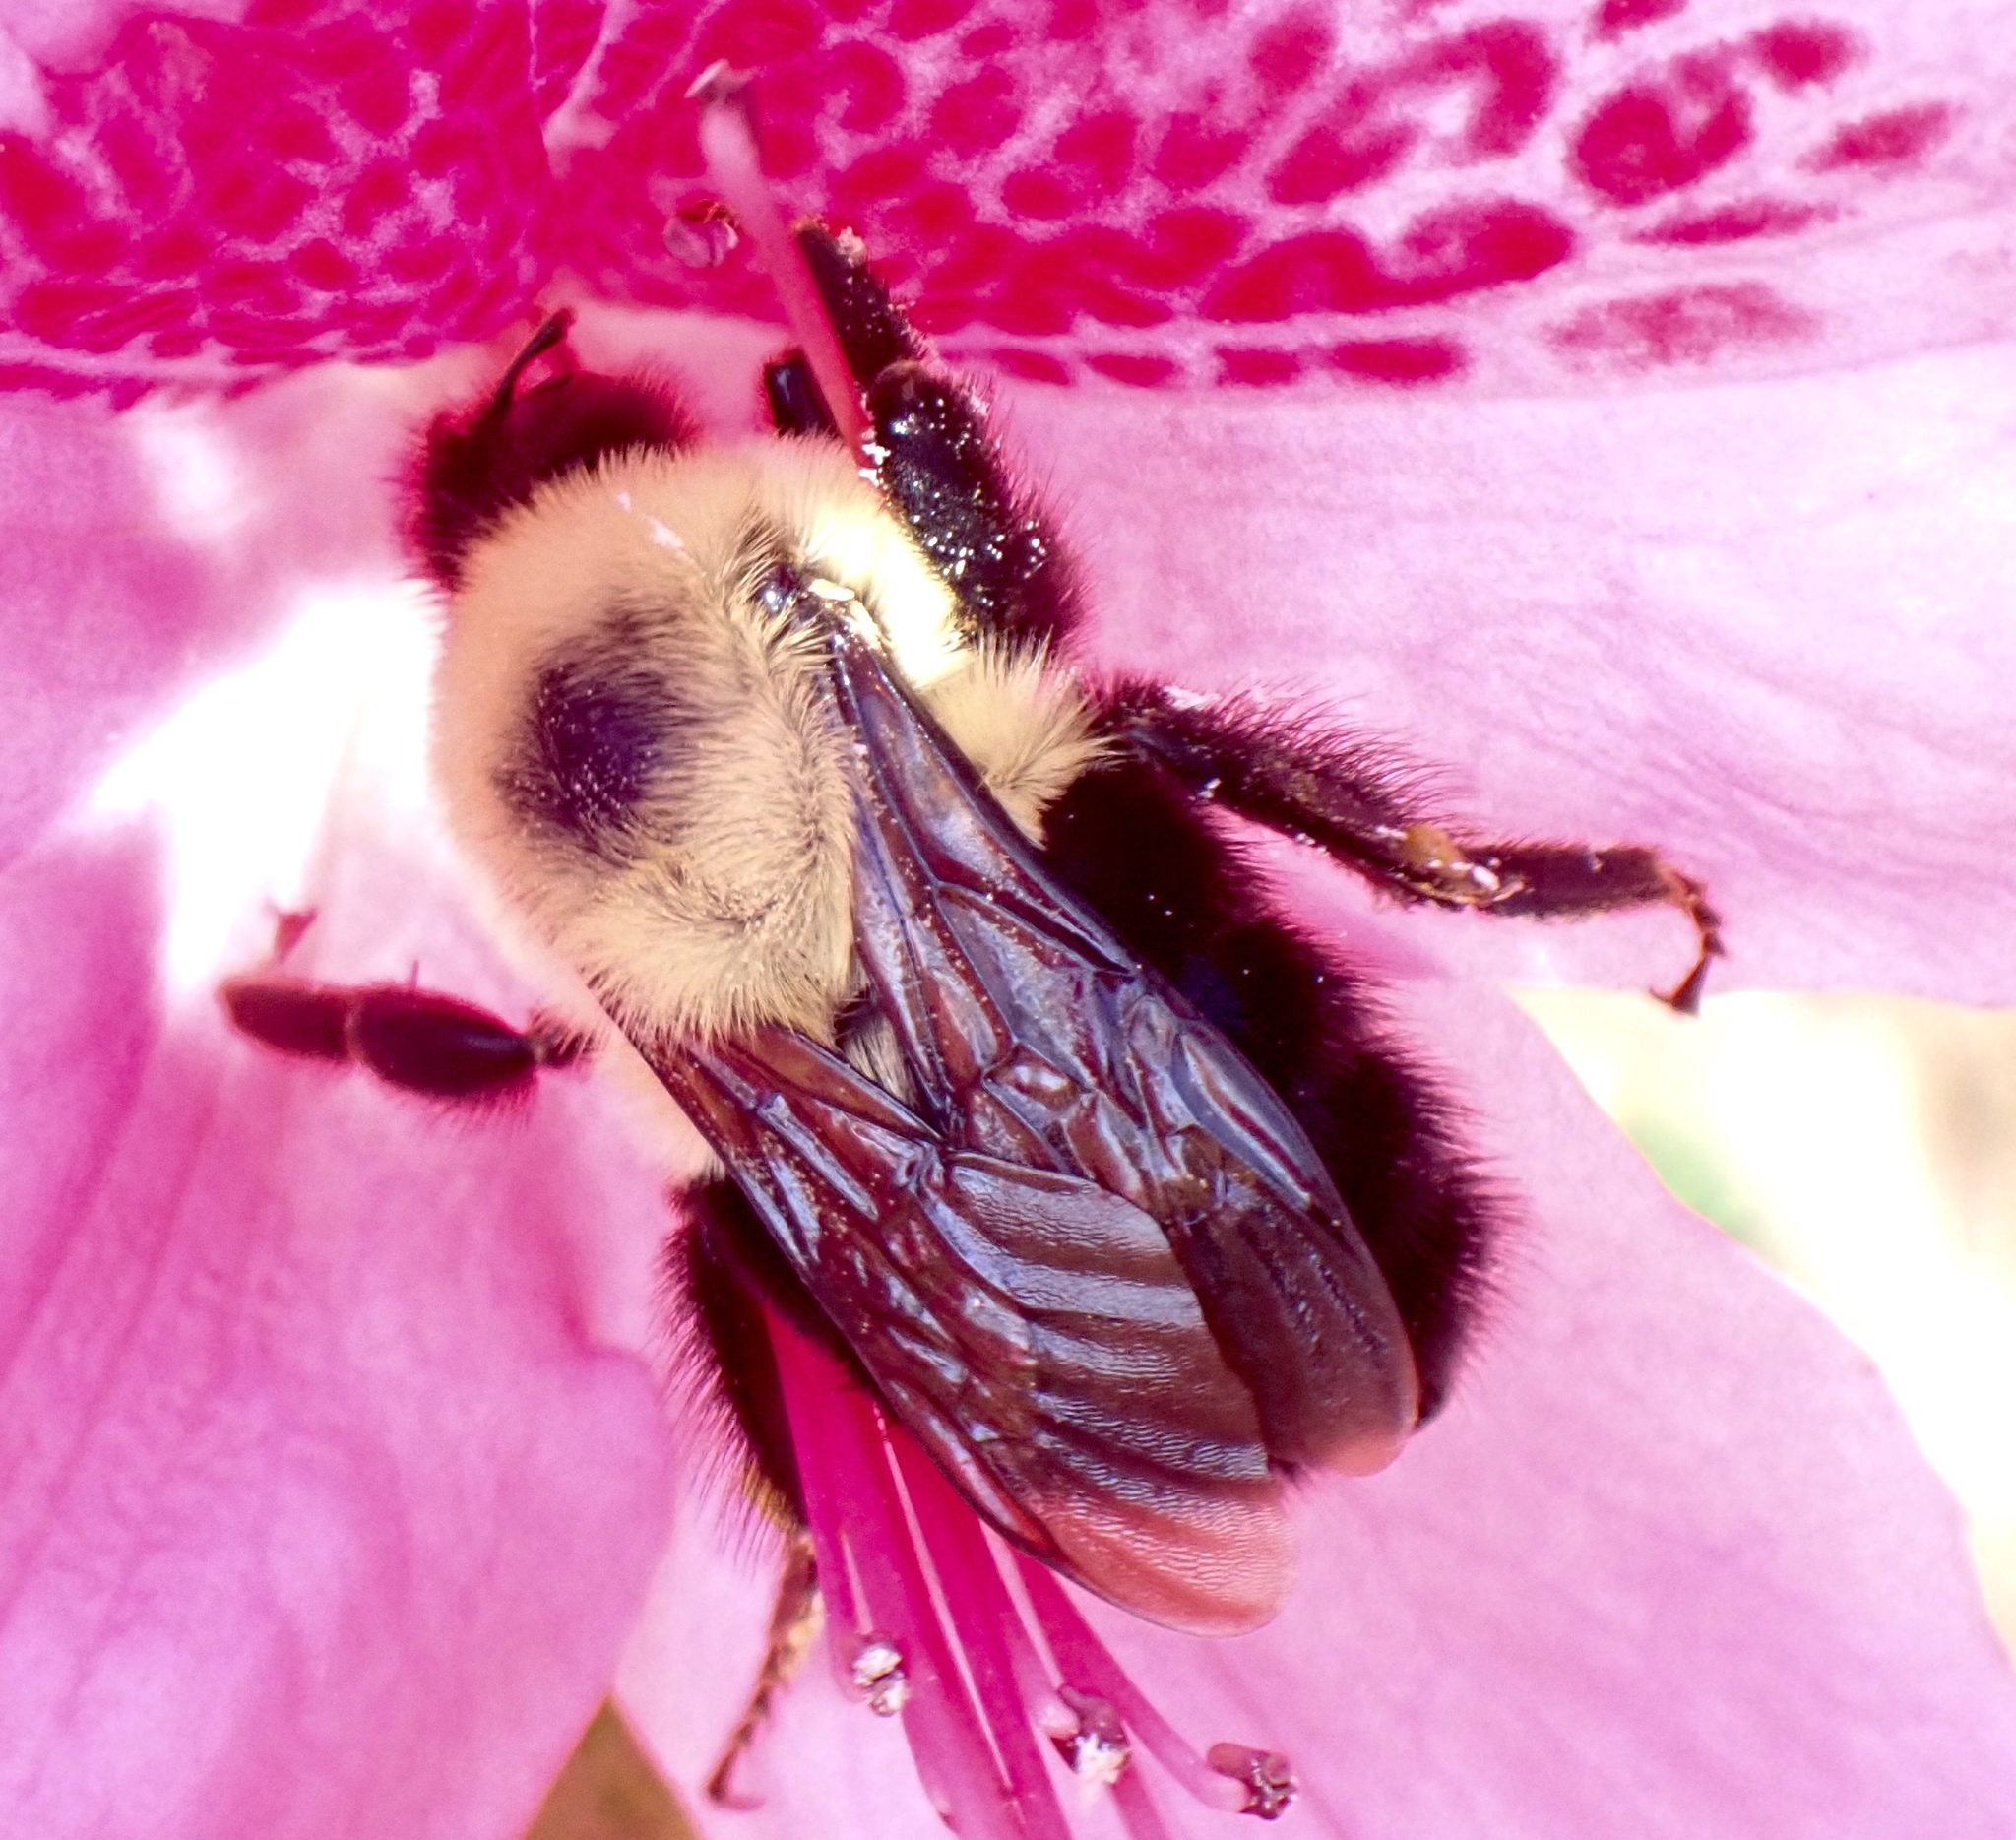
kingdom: Animalia
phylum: Arthropoda
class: Insecta
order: Hymenoptera
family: Apidae
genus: Bombus
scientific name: Bombus bimaculatus
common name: Two-spotted bumble bee
